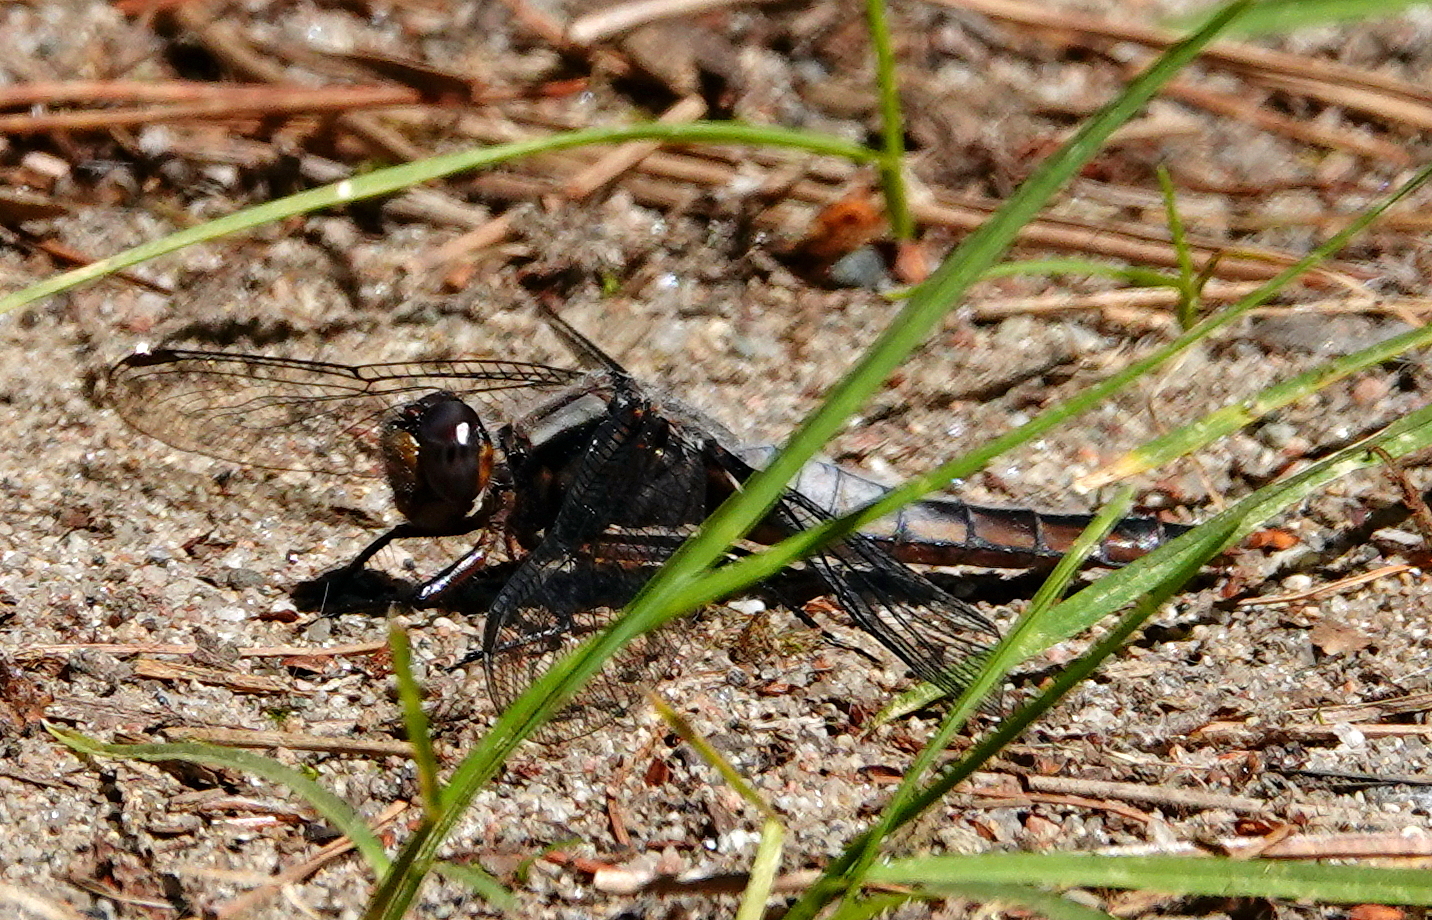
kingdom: Animalia
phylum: Arthropoda
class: Insecta
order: Odonata
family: Libellulidae
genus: Ladona
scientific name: Ladona julia
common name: Chalk-fronted corporal
